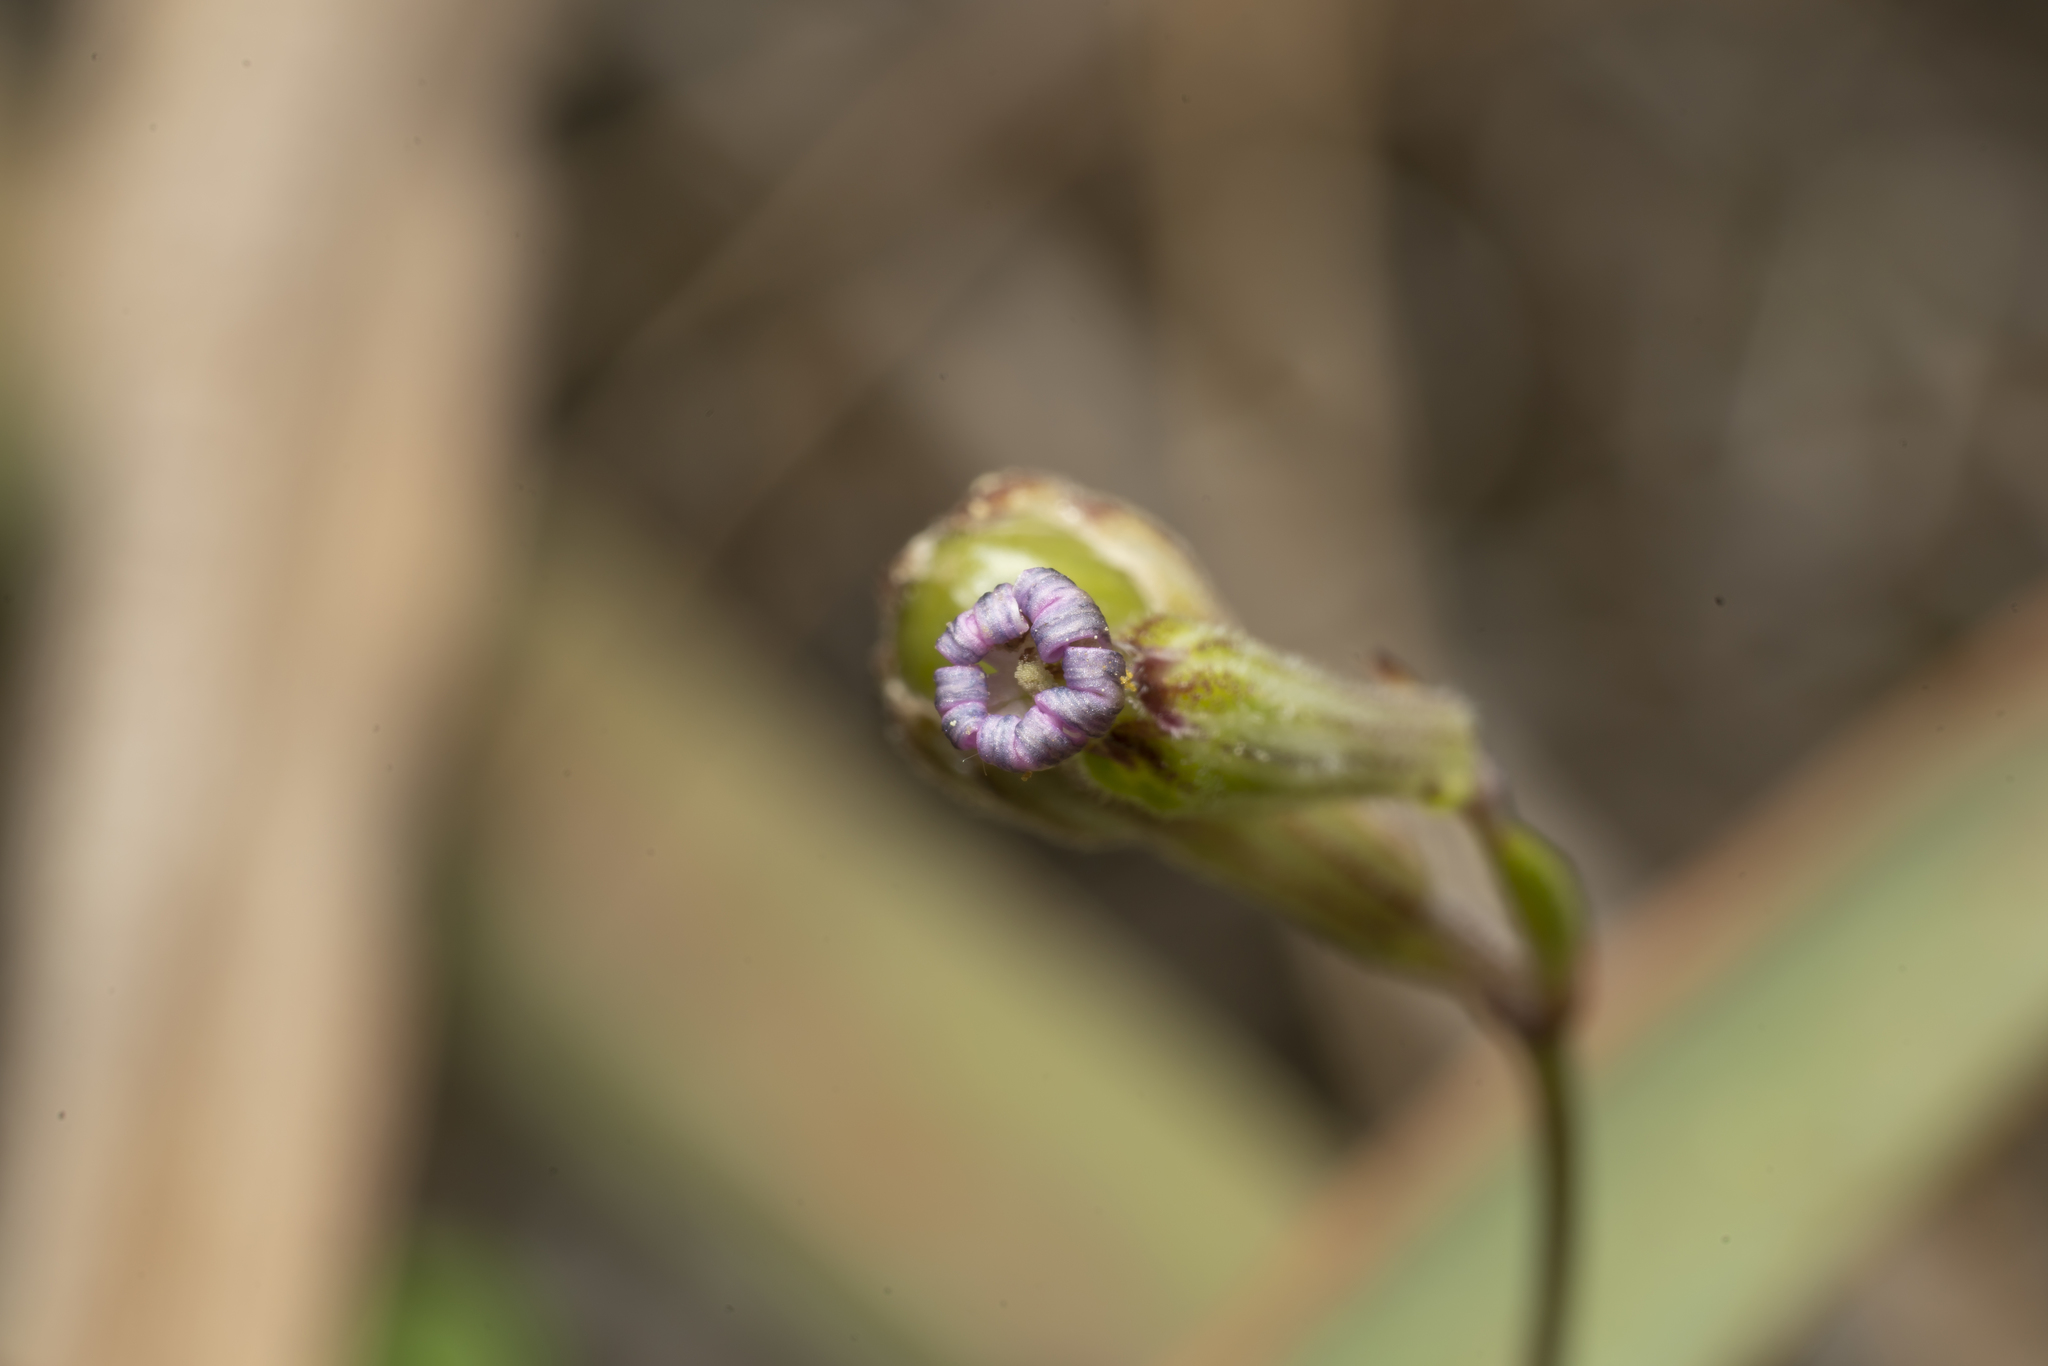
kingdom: Plantae
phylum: Tracheophyta
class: Magnoliopsida
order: Caryophyllales
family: Caryophyllaceae
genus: Silene
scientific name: Silene colorata
